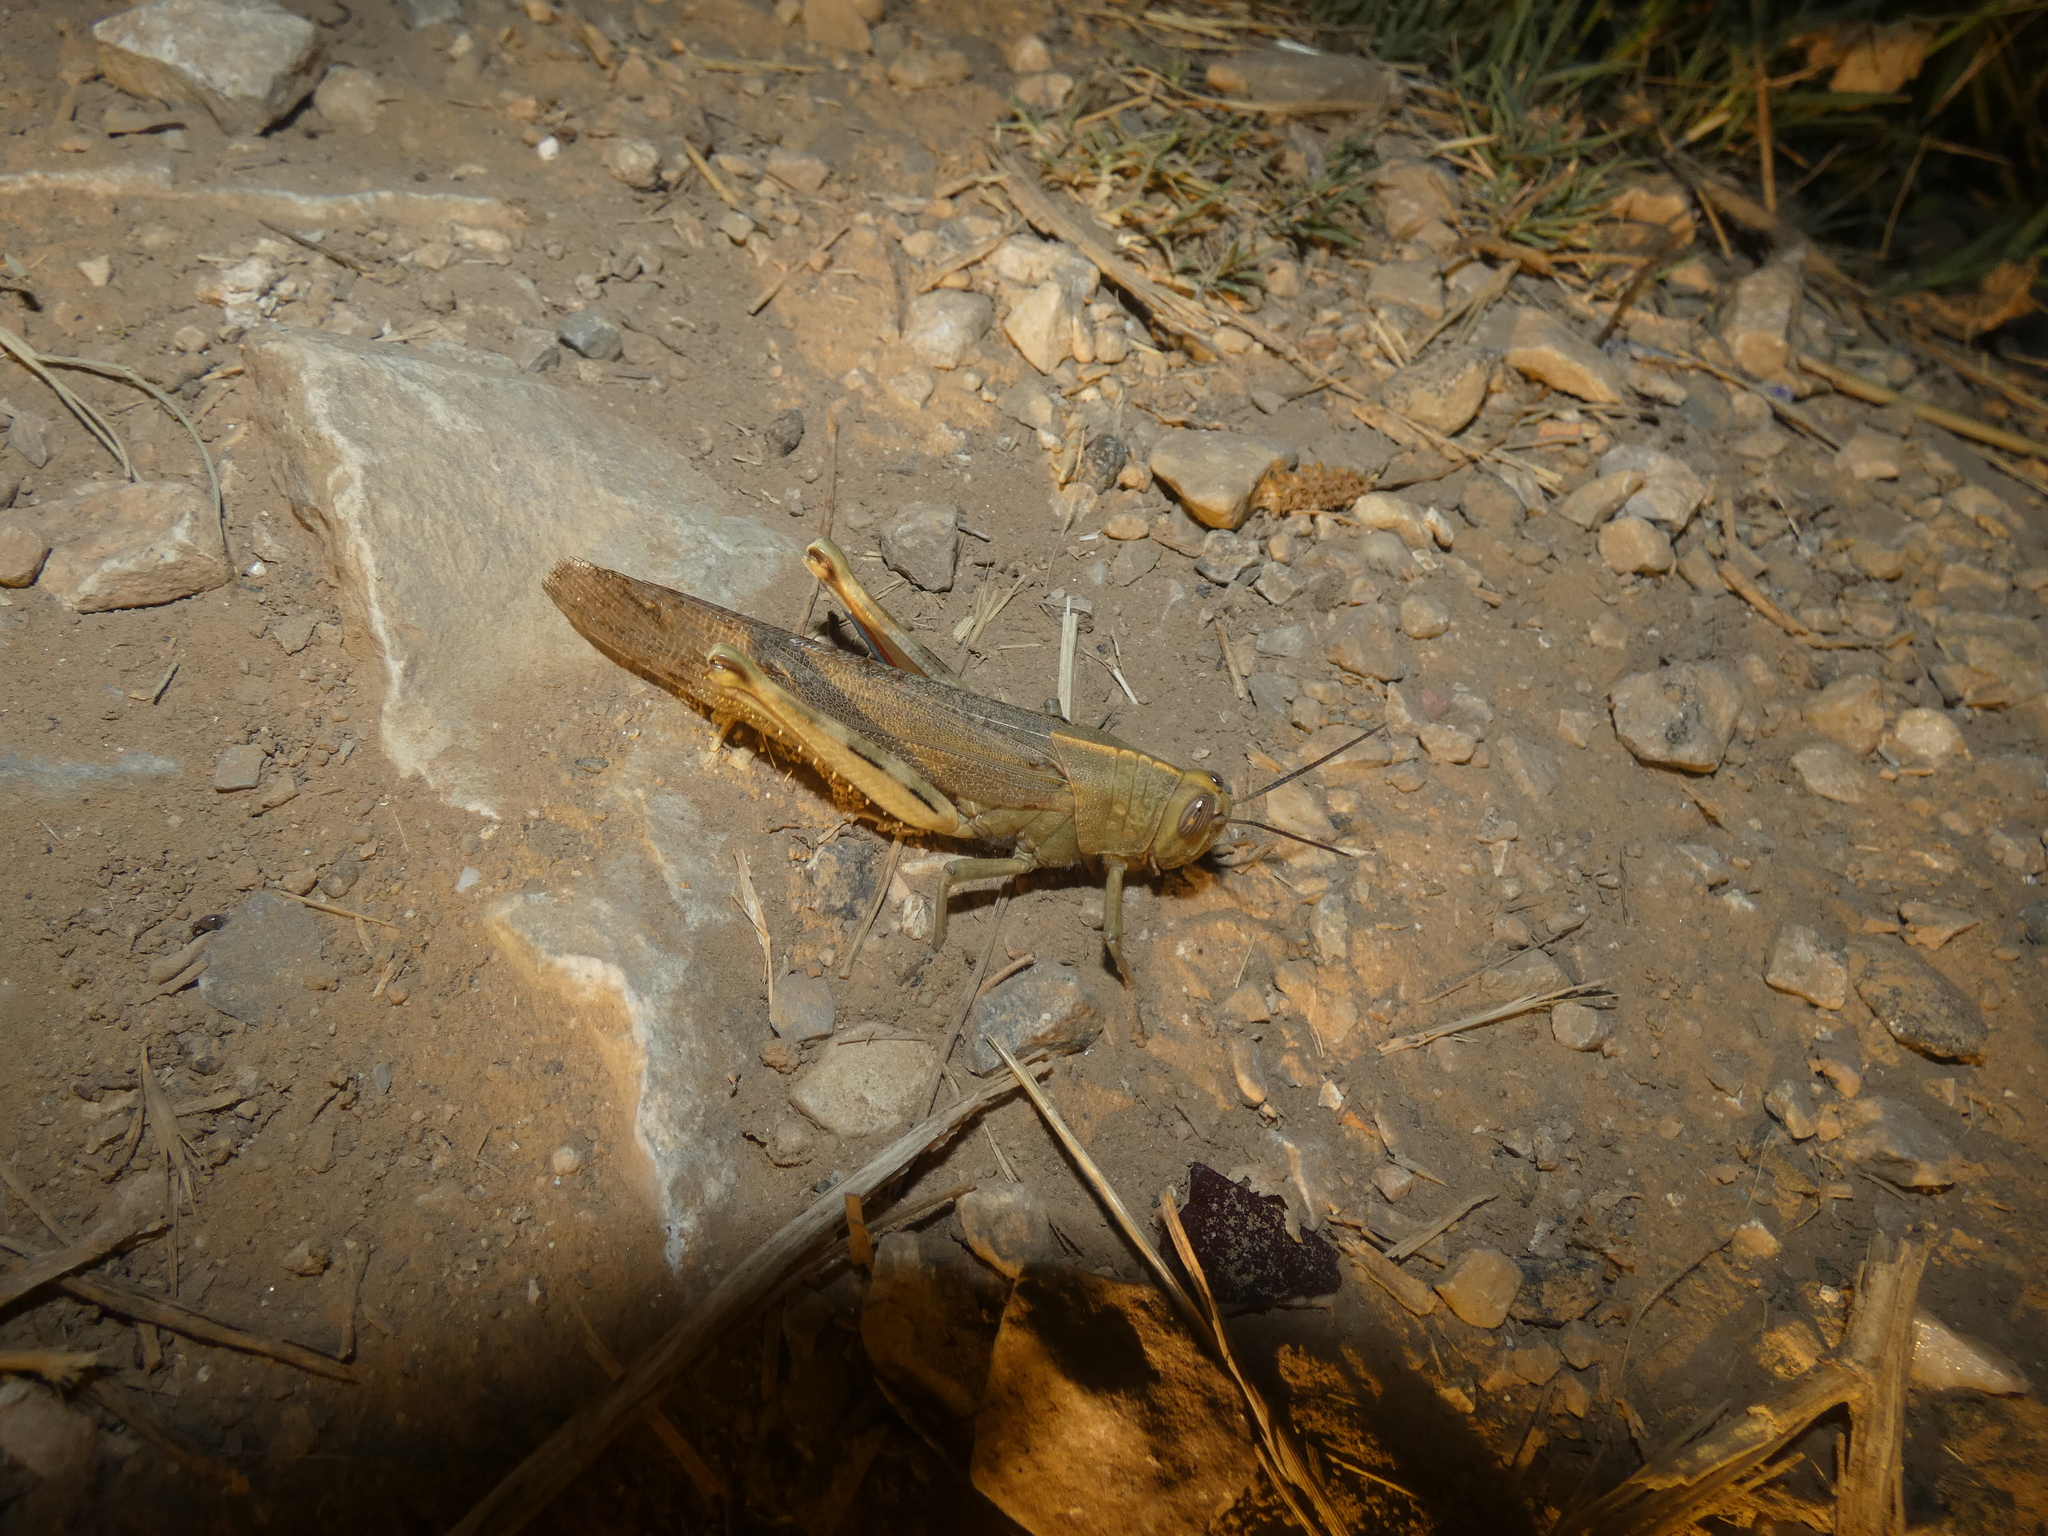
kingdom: Animalia
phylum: Arthropoda
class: Insecta
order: Orthoptera
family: Acrididae
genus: Anacridium
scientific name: Anacridium aegyptium
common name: Egyptian grasshopper
